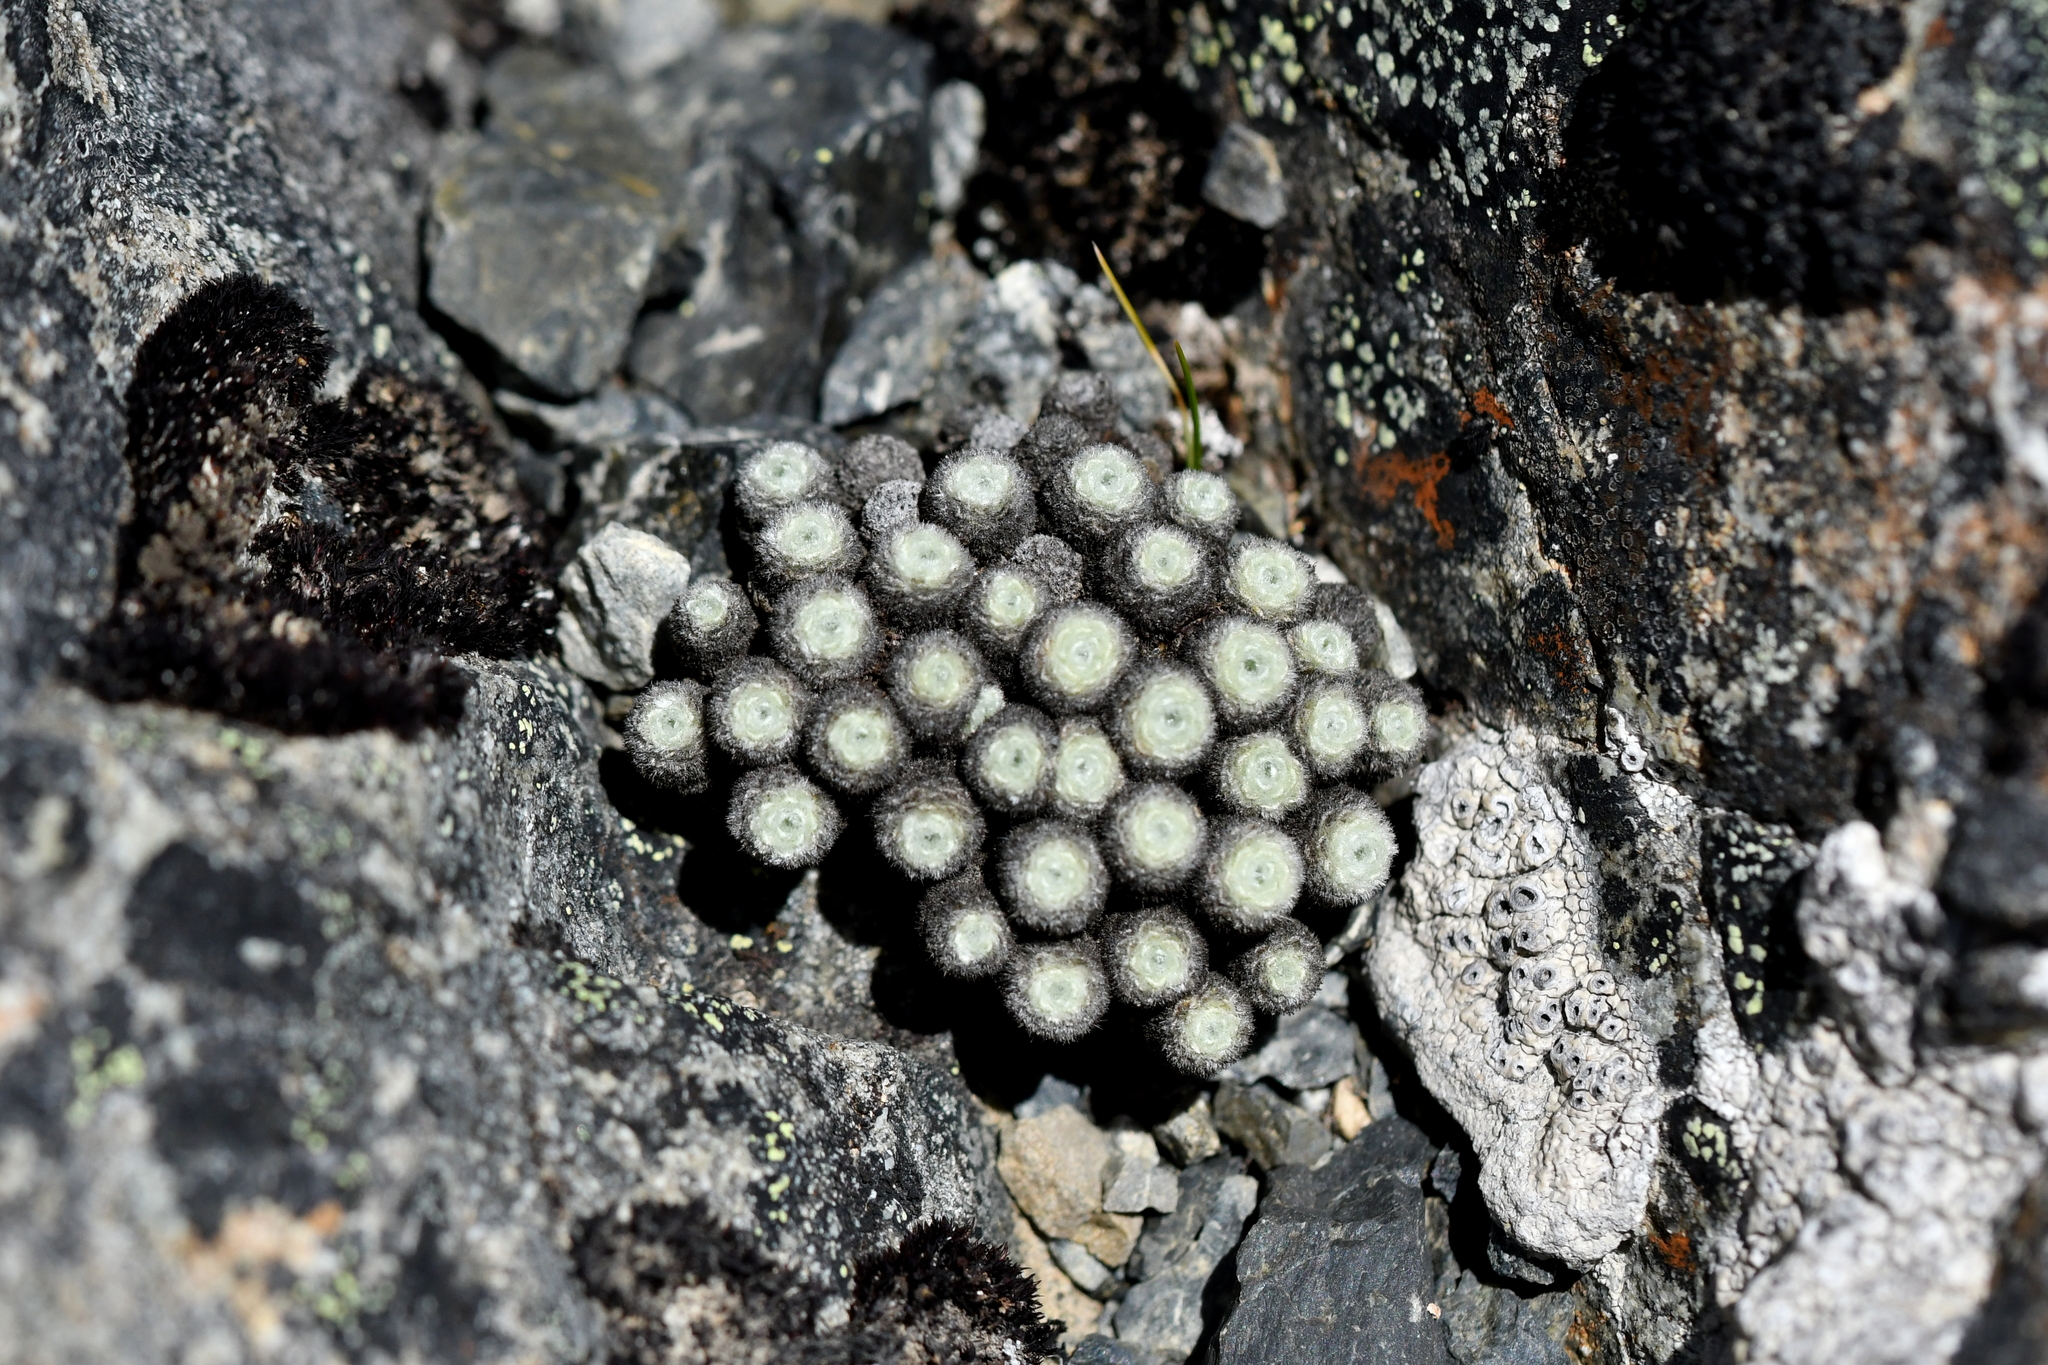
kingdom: Plantae
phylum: Tracheophyta
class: Magnoliopsida
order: Asterales
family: Asteraceae
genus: Raoulia
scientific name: Raoulia mammillaris
